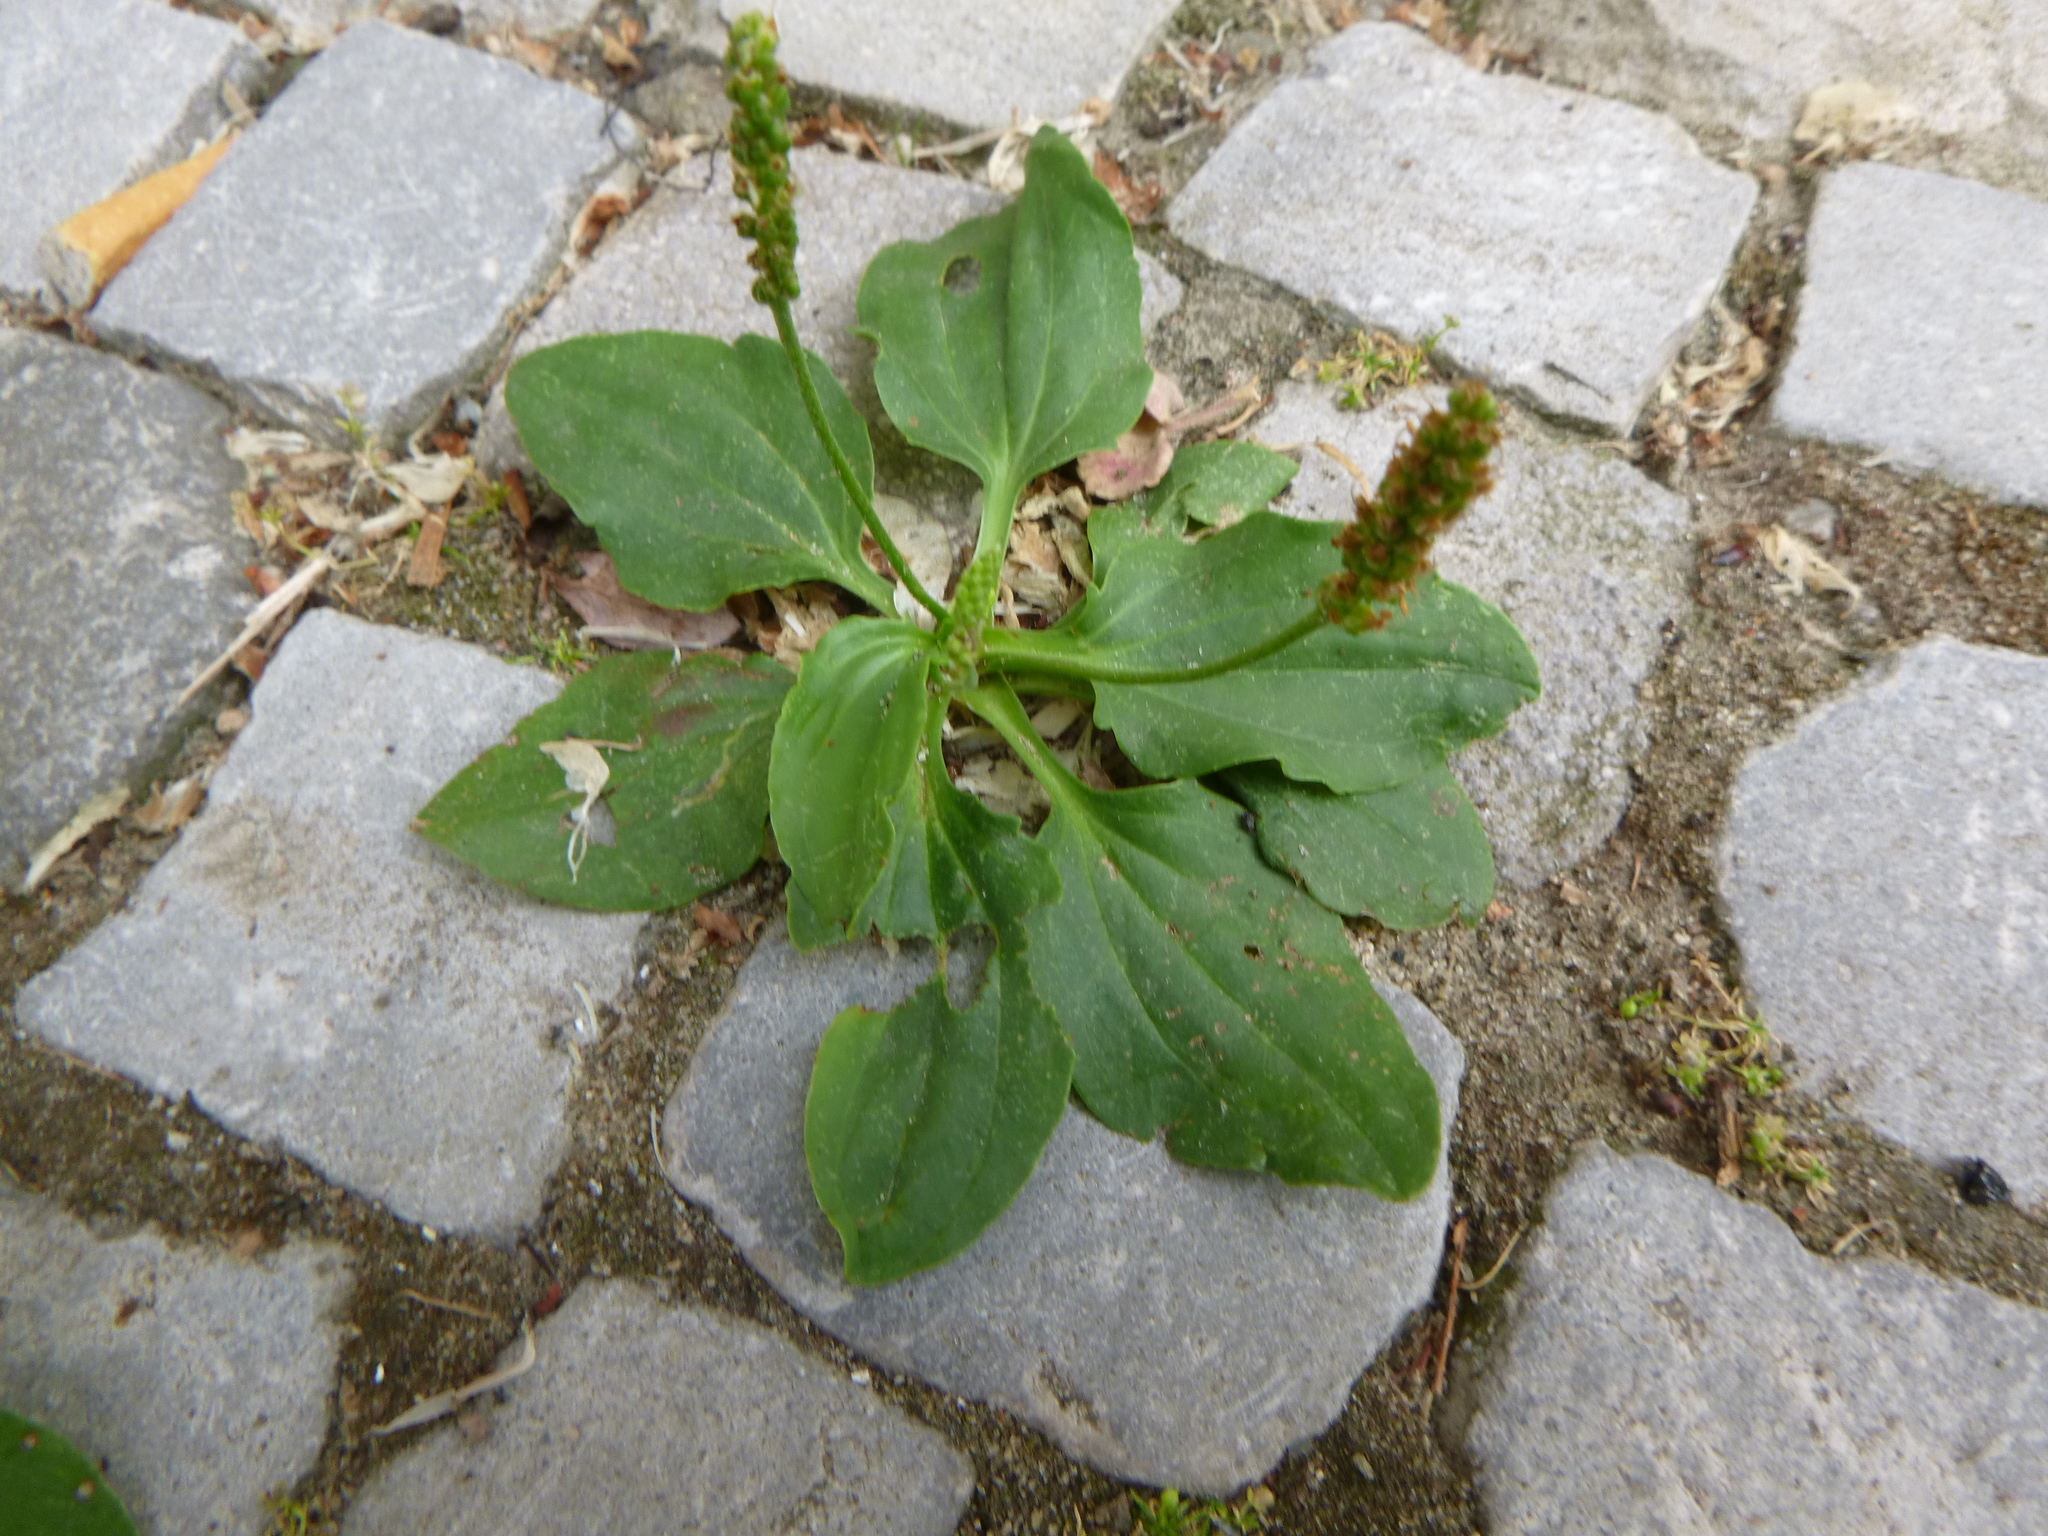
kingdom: Plantae
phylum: Tracheophyta
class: Magnoliopsida
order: Lamiales
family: Plantaginaceae
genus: Plantago
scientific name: Plantago major
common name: Common plantain
